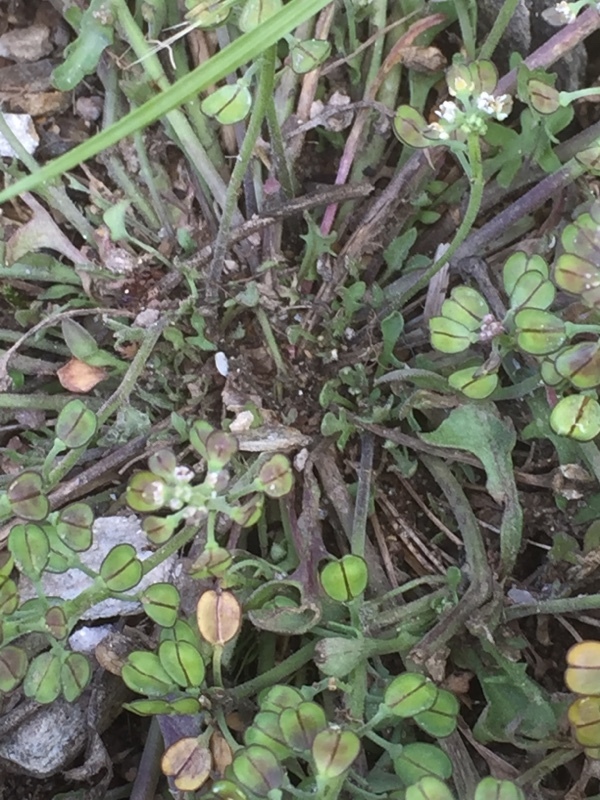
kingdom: Plantae
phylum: Tracheophyta
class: Magnoliopsida
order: Brassicales
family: Brassicaceae
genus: Teesdalia
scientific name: Teesdalia nudicaulis
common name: Shepherd's cress
